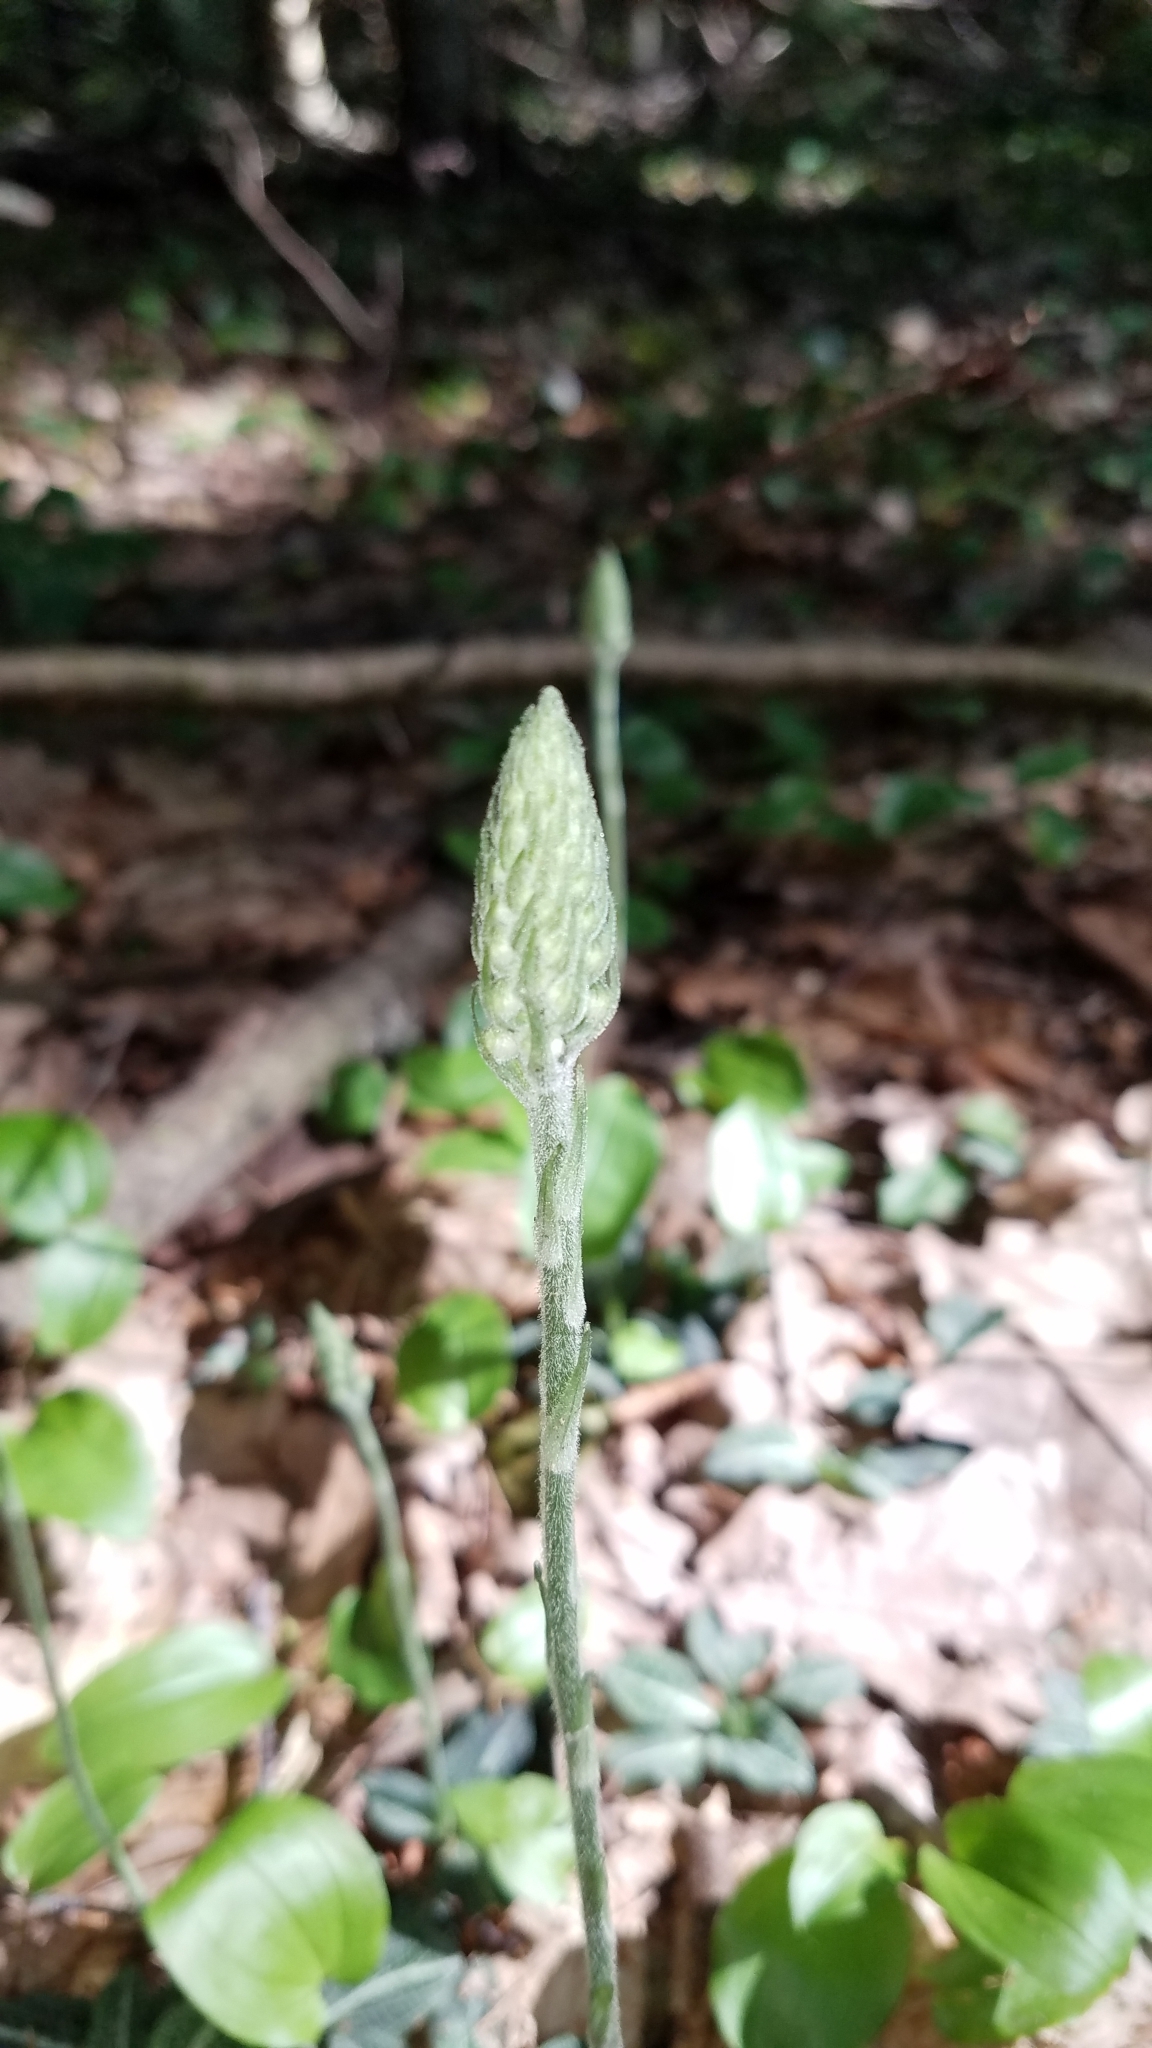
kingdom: Plantae
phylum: Tracheophyta
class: Liliopsida
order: Asparagales
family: Orchidaceae
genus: Goodyera
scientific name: Goodyera pubescens
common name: Downy rattlesnake-plantain
